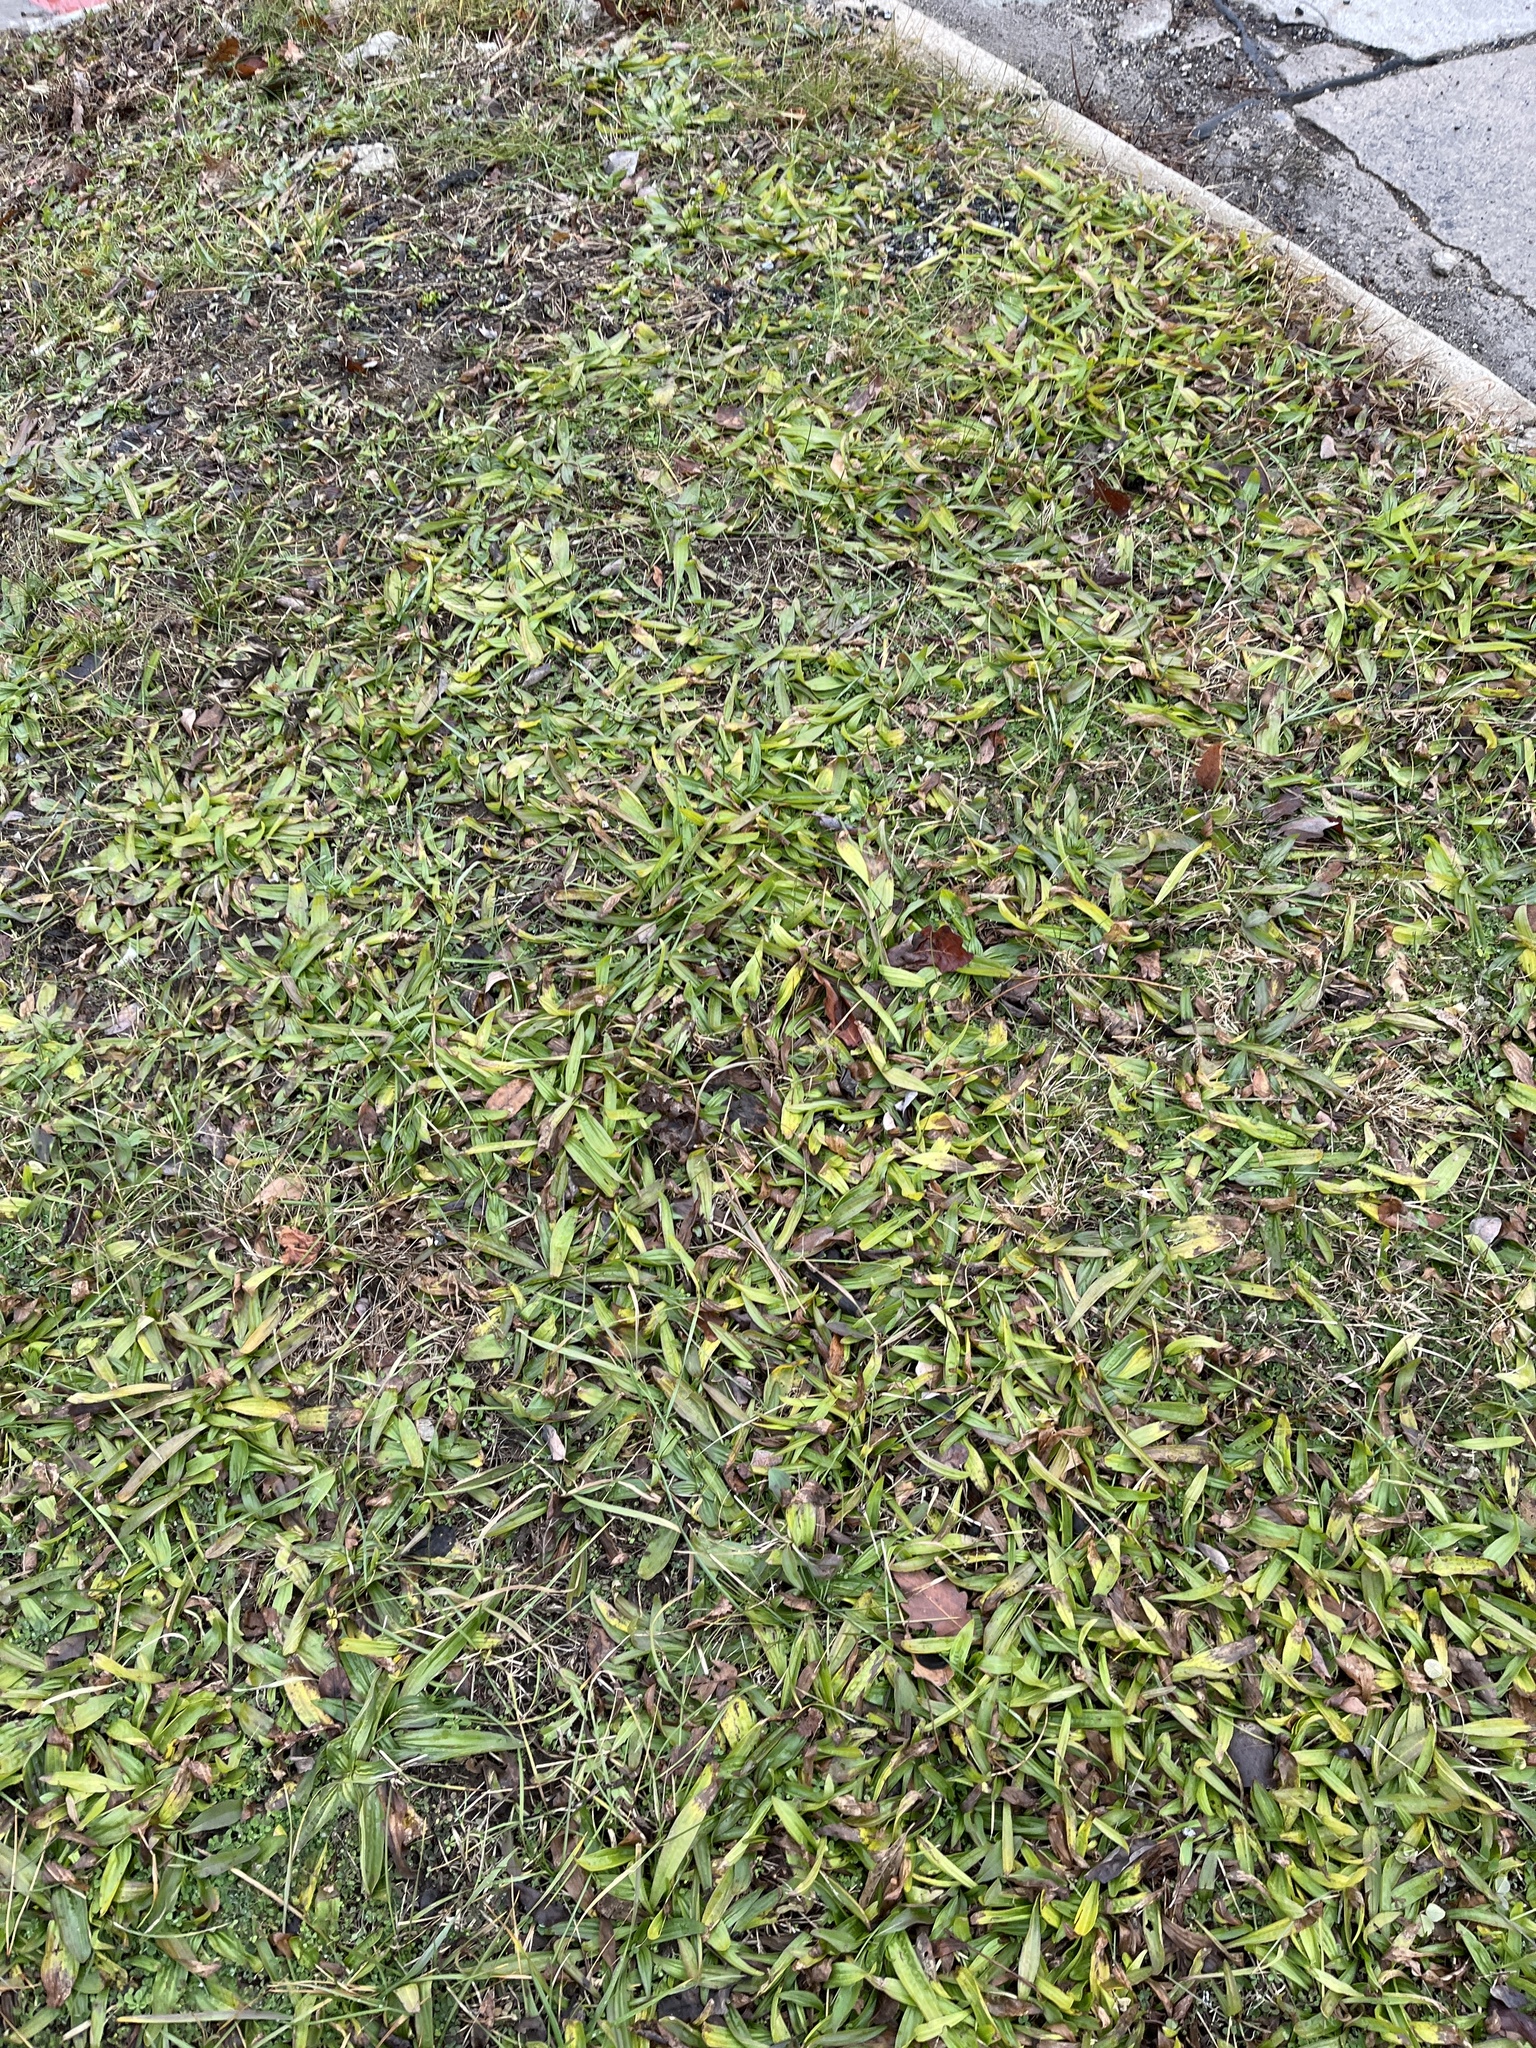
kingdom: Plantae
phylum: Tracheophyta
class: Magnoliopsida
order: Lamiales
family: Plantaginaceae
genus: Plantago
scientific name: Plantago lanceolata
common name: Ribwort plantain
